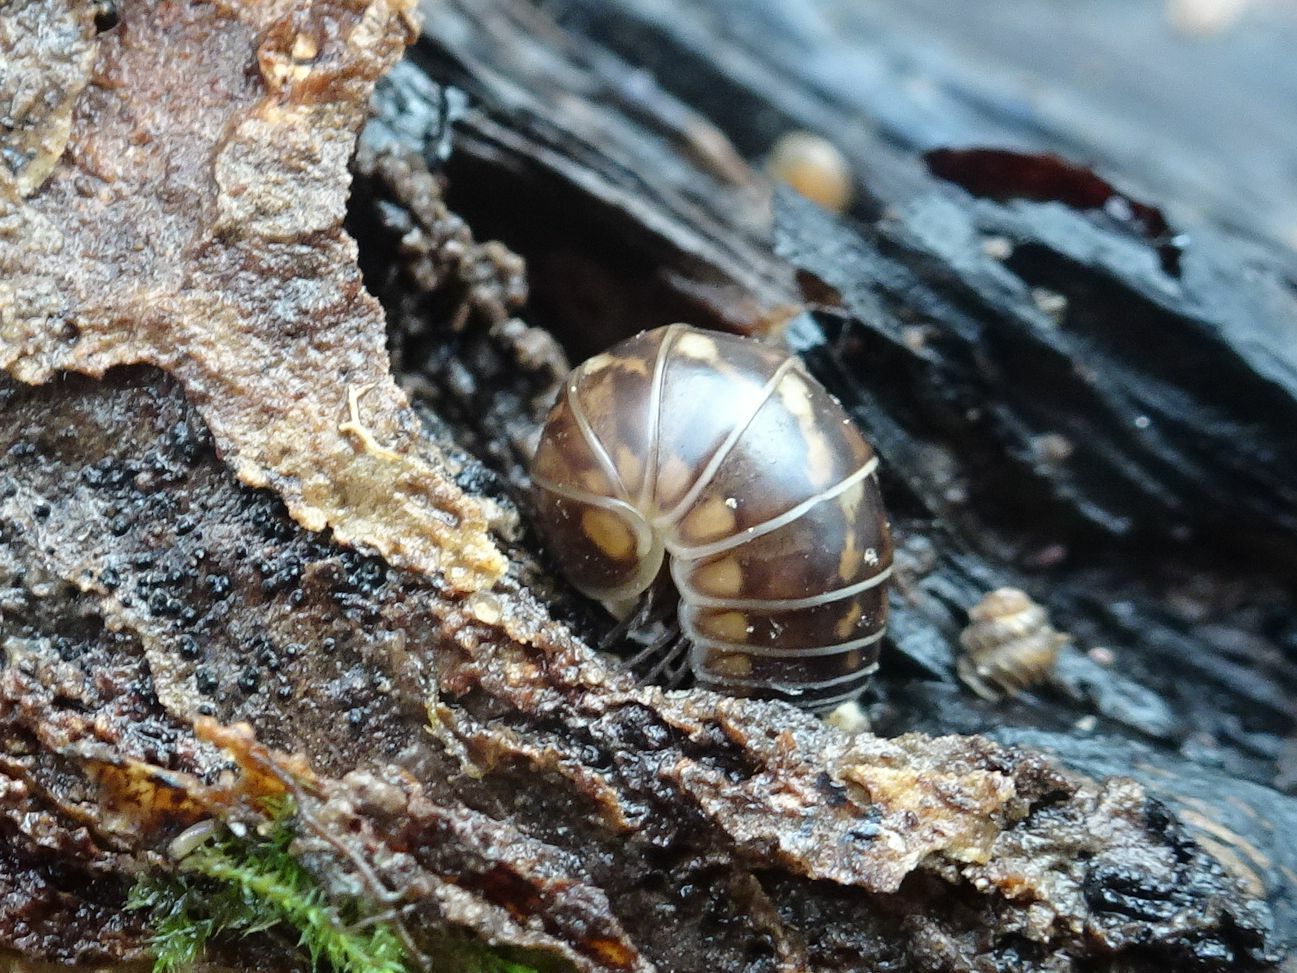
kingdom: Animalia
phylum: Arthropoda
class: Diplopoda
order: Glomerida
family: Glomeridae
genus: Glomeris
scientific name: Glomeris intermedia
